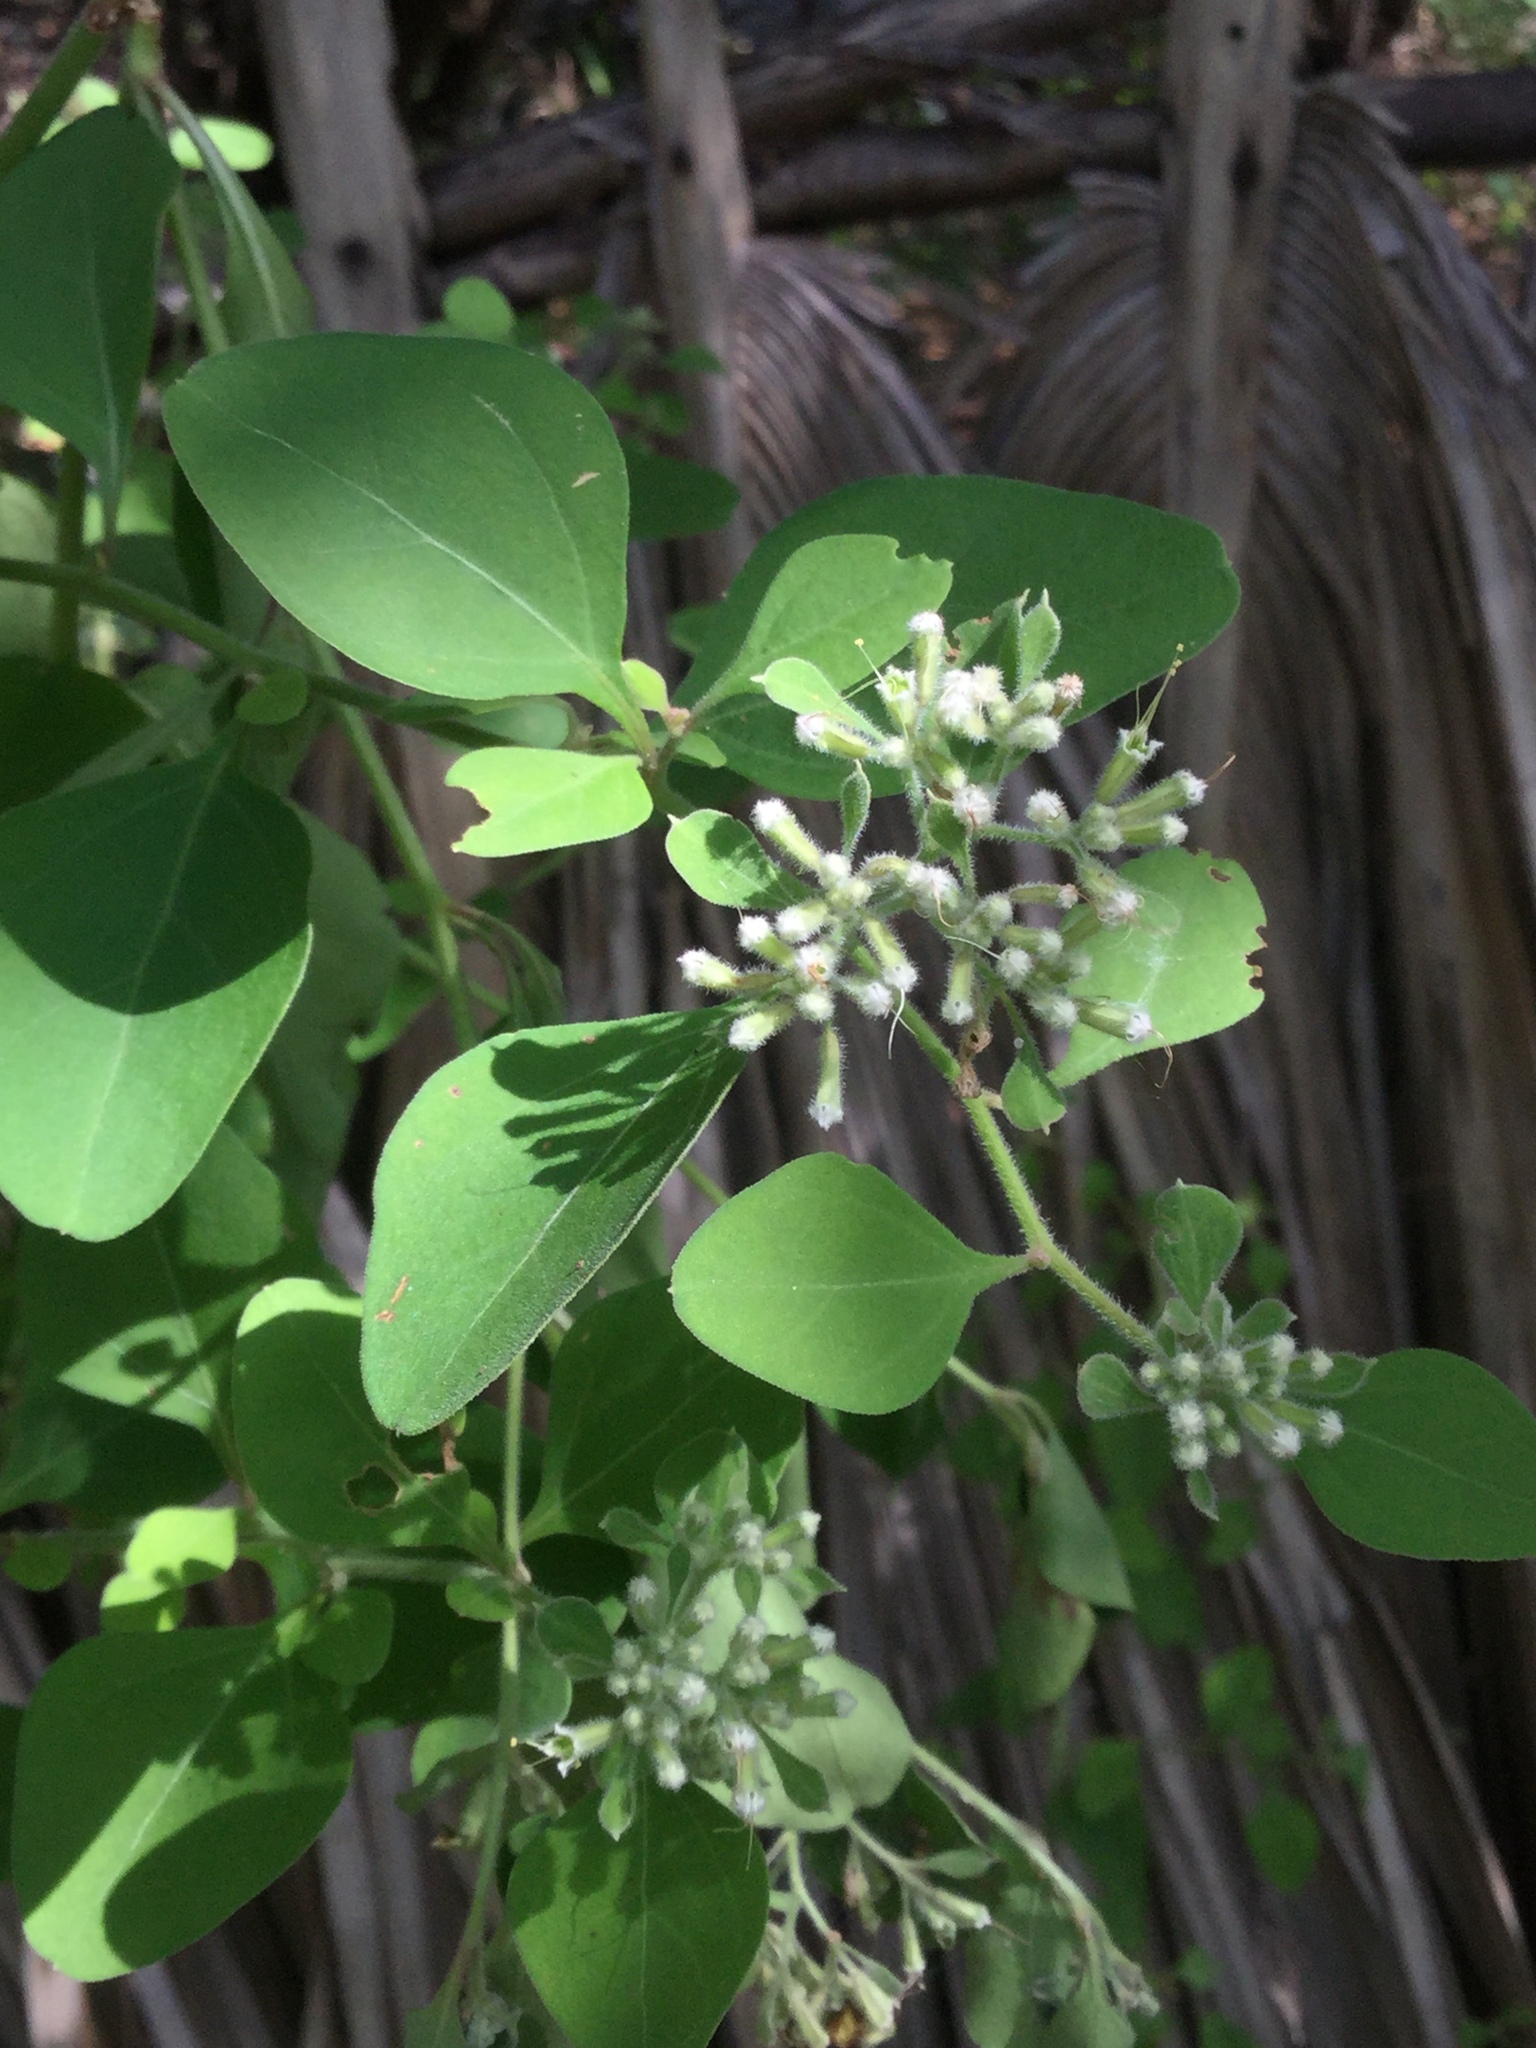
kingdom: Plantae
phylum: Tracheophyta
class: Magnoliopsida
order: Caryophyllales
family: Nyctaginaceae
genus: Salpianthus
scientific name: Salpianthus arenarius
